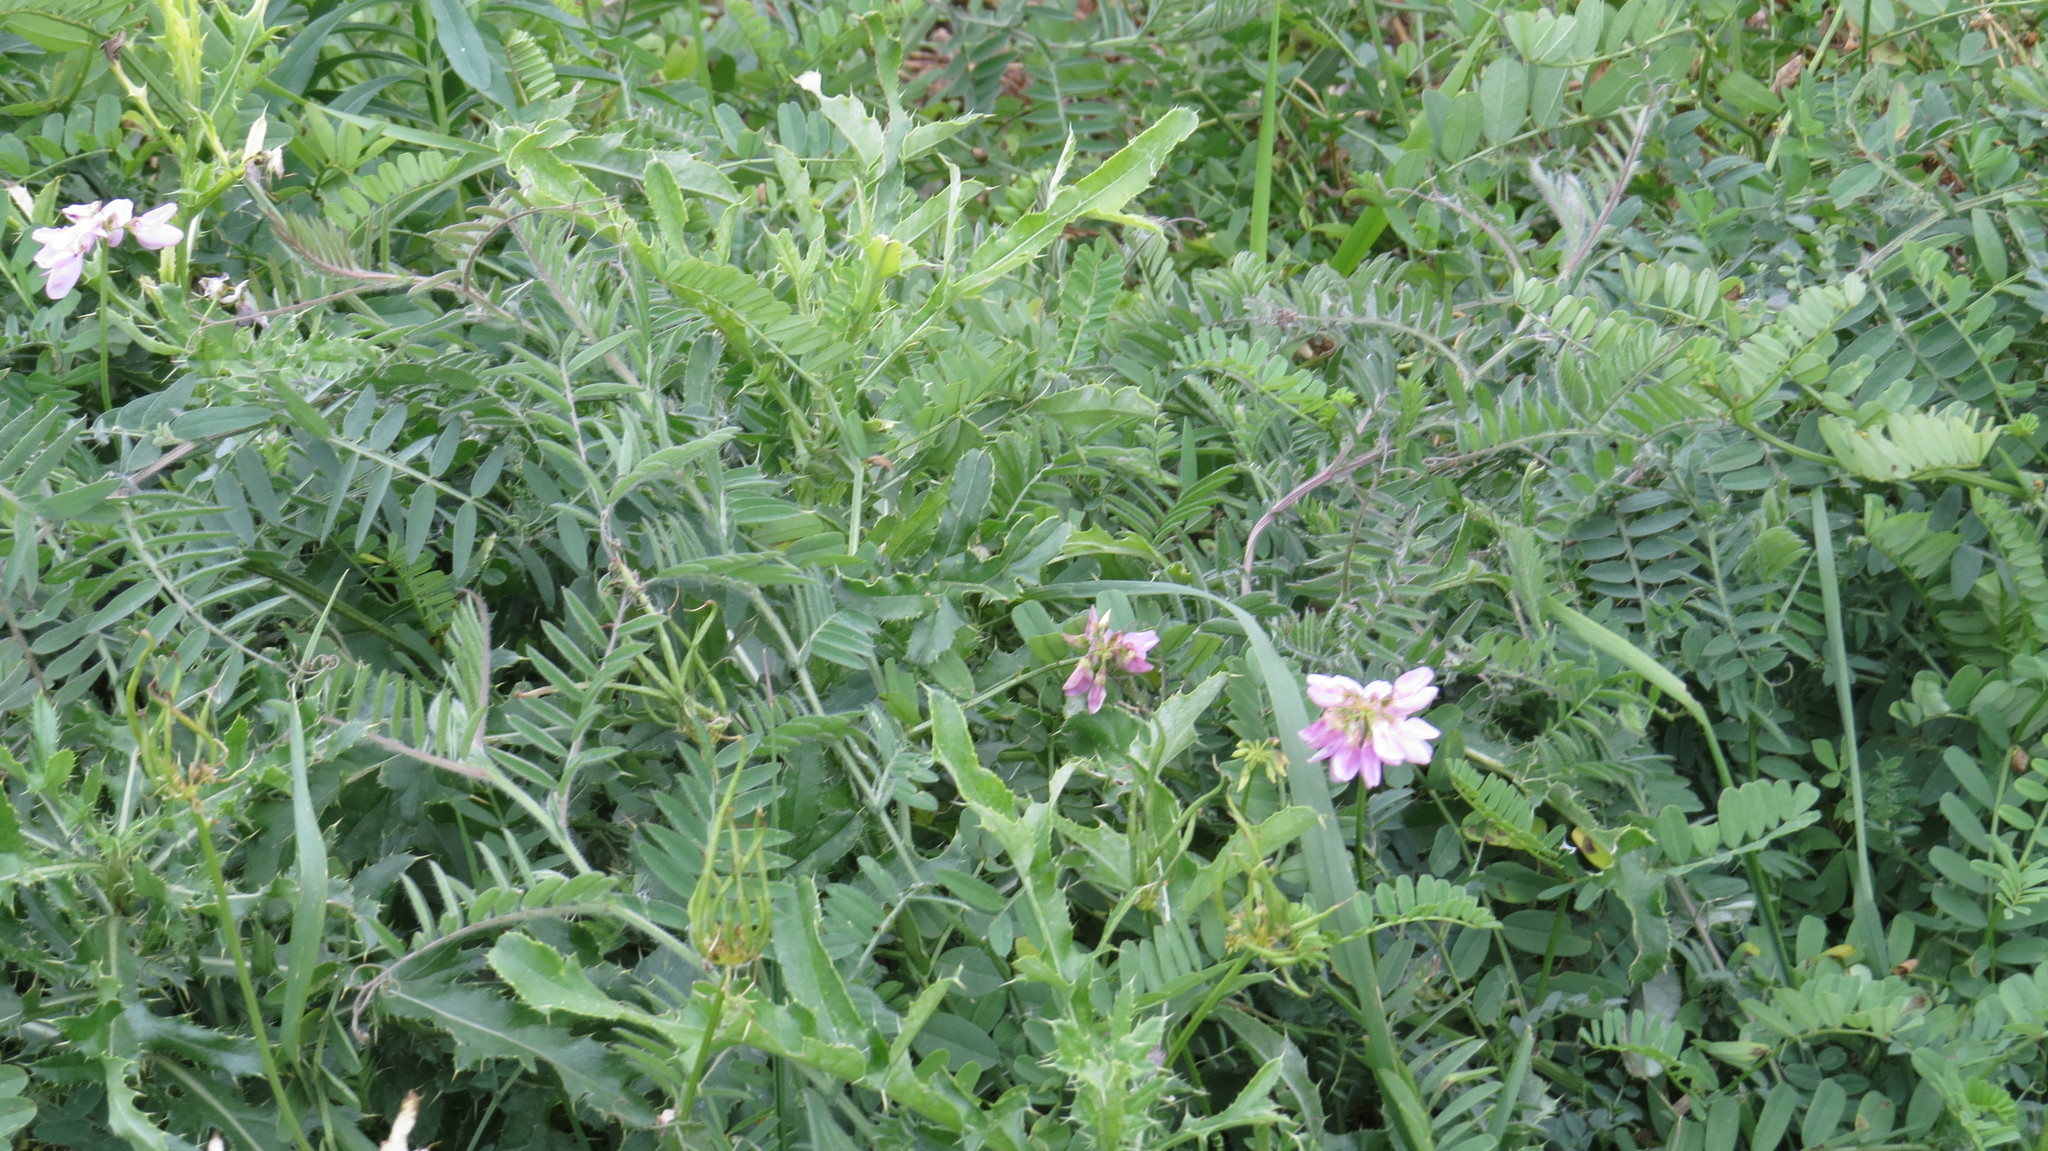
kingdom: Plantae
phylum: Tracheophyta
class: Magnoliopsida
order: Fabales
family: Fabaceae
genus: Coronilla
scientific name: Coronilla varia
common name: Crownvetch
